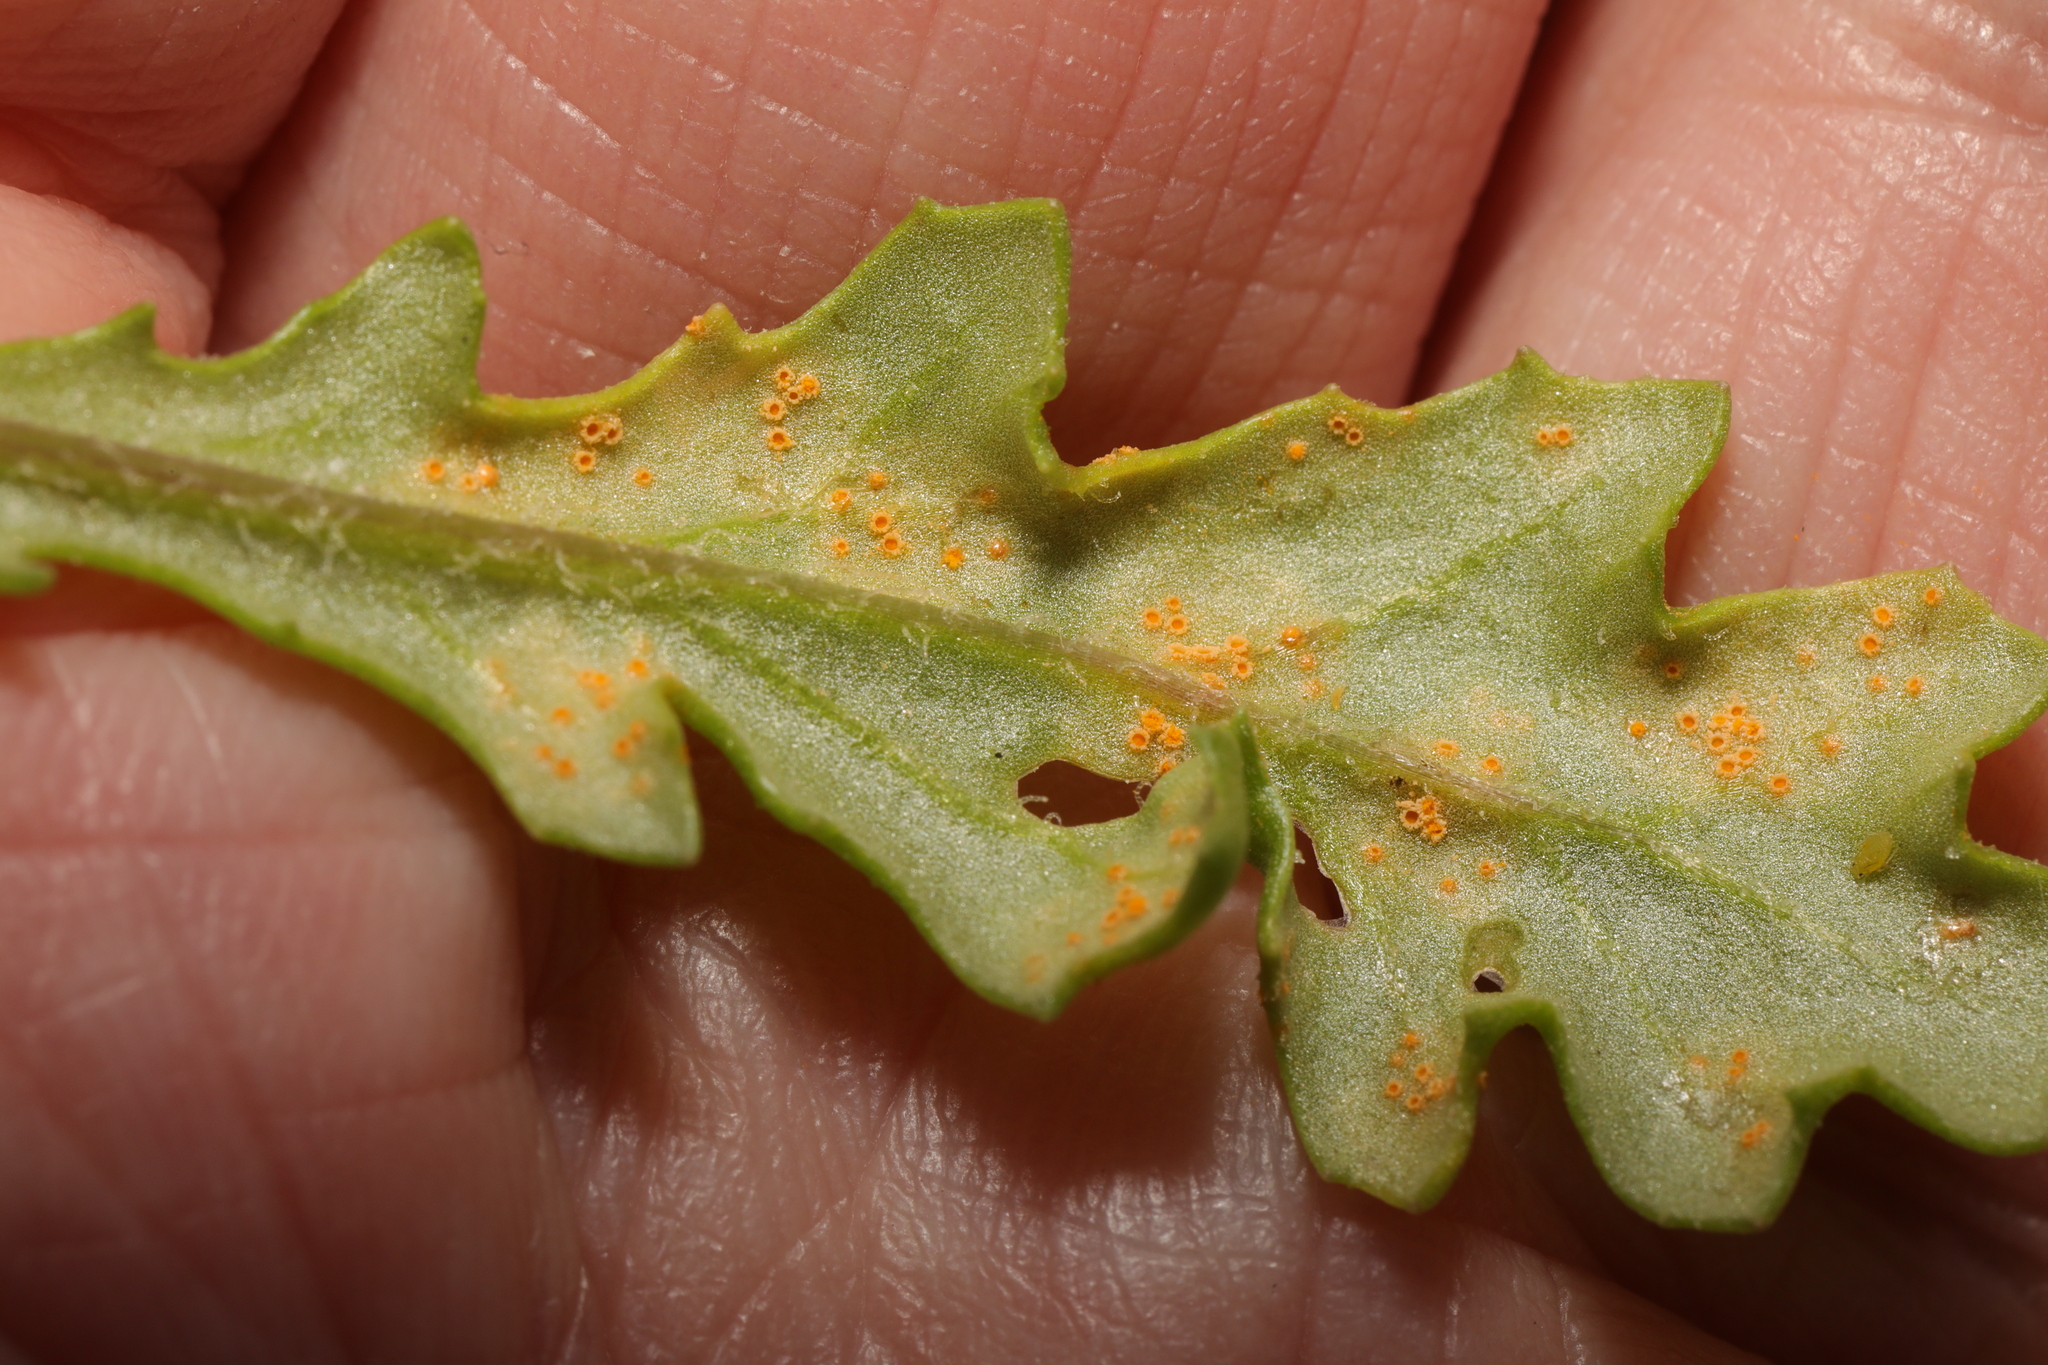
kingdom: Fungi
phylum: Basidiomycota
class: Pucciniomycetes
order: Pucciniales
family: Pucciniaceae
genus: Puccinia
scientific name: Puccinia lagenophorae
